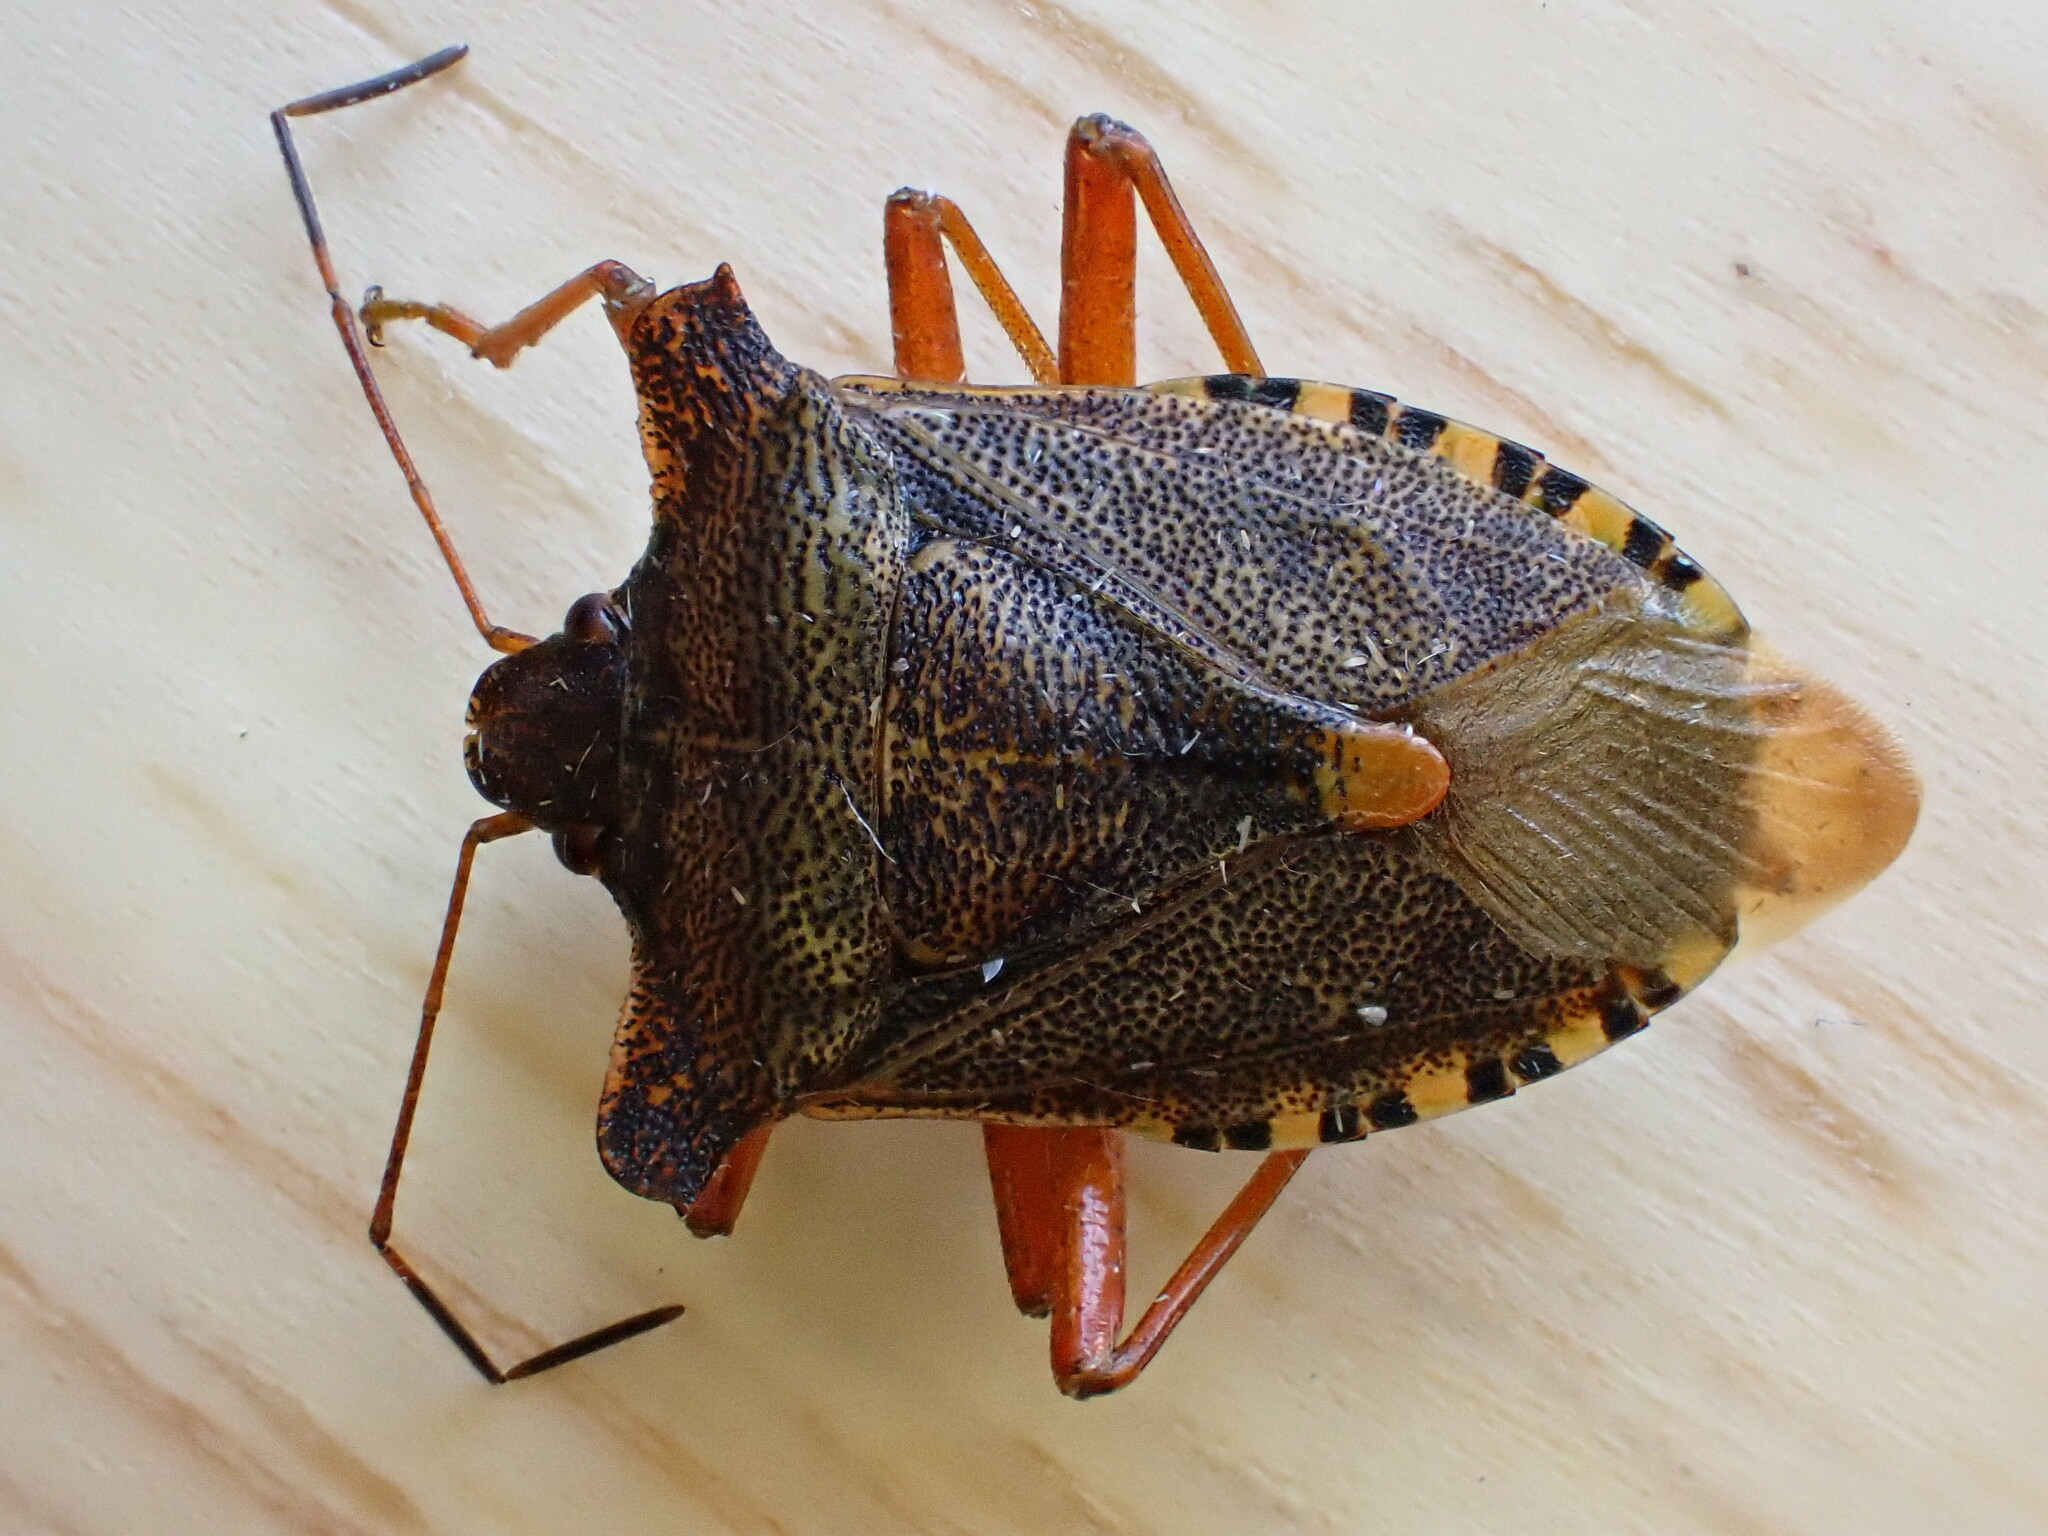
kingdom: Animalia
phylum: Arthropoda
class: Insecta
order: Hemiptera
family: Pentatomidae
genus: Pentatoma
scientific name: Pentatoma rufipes
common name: Forest bug
